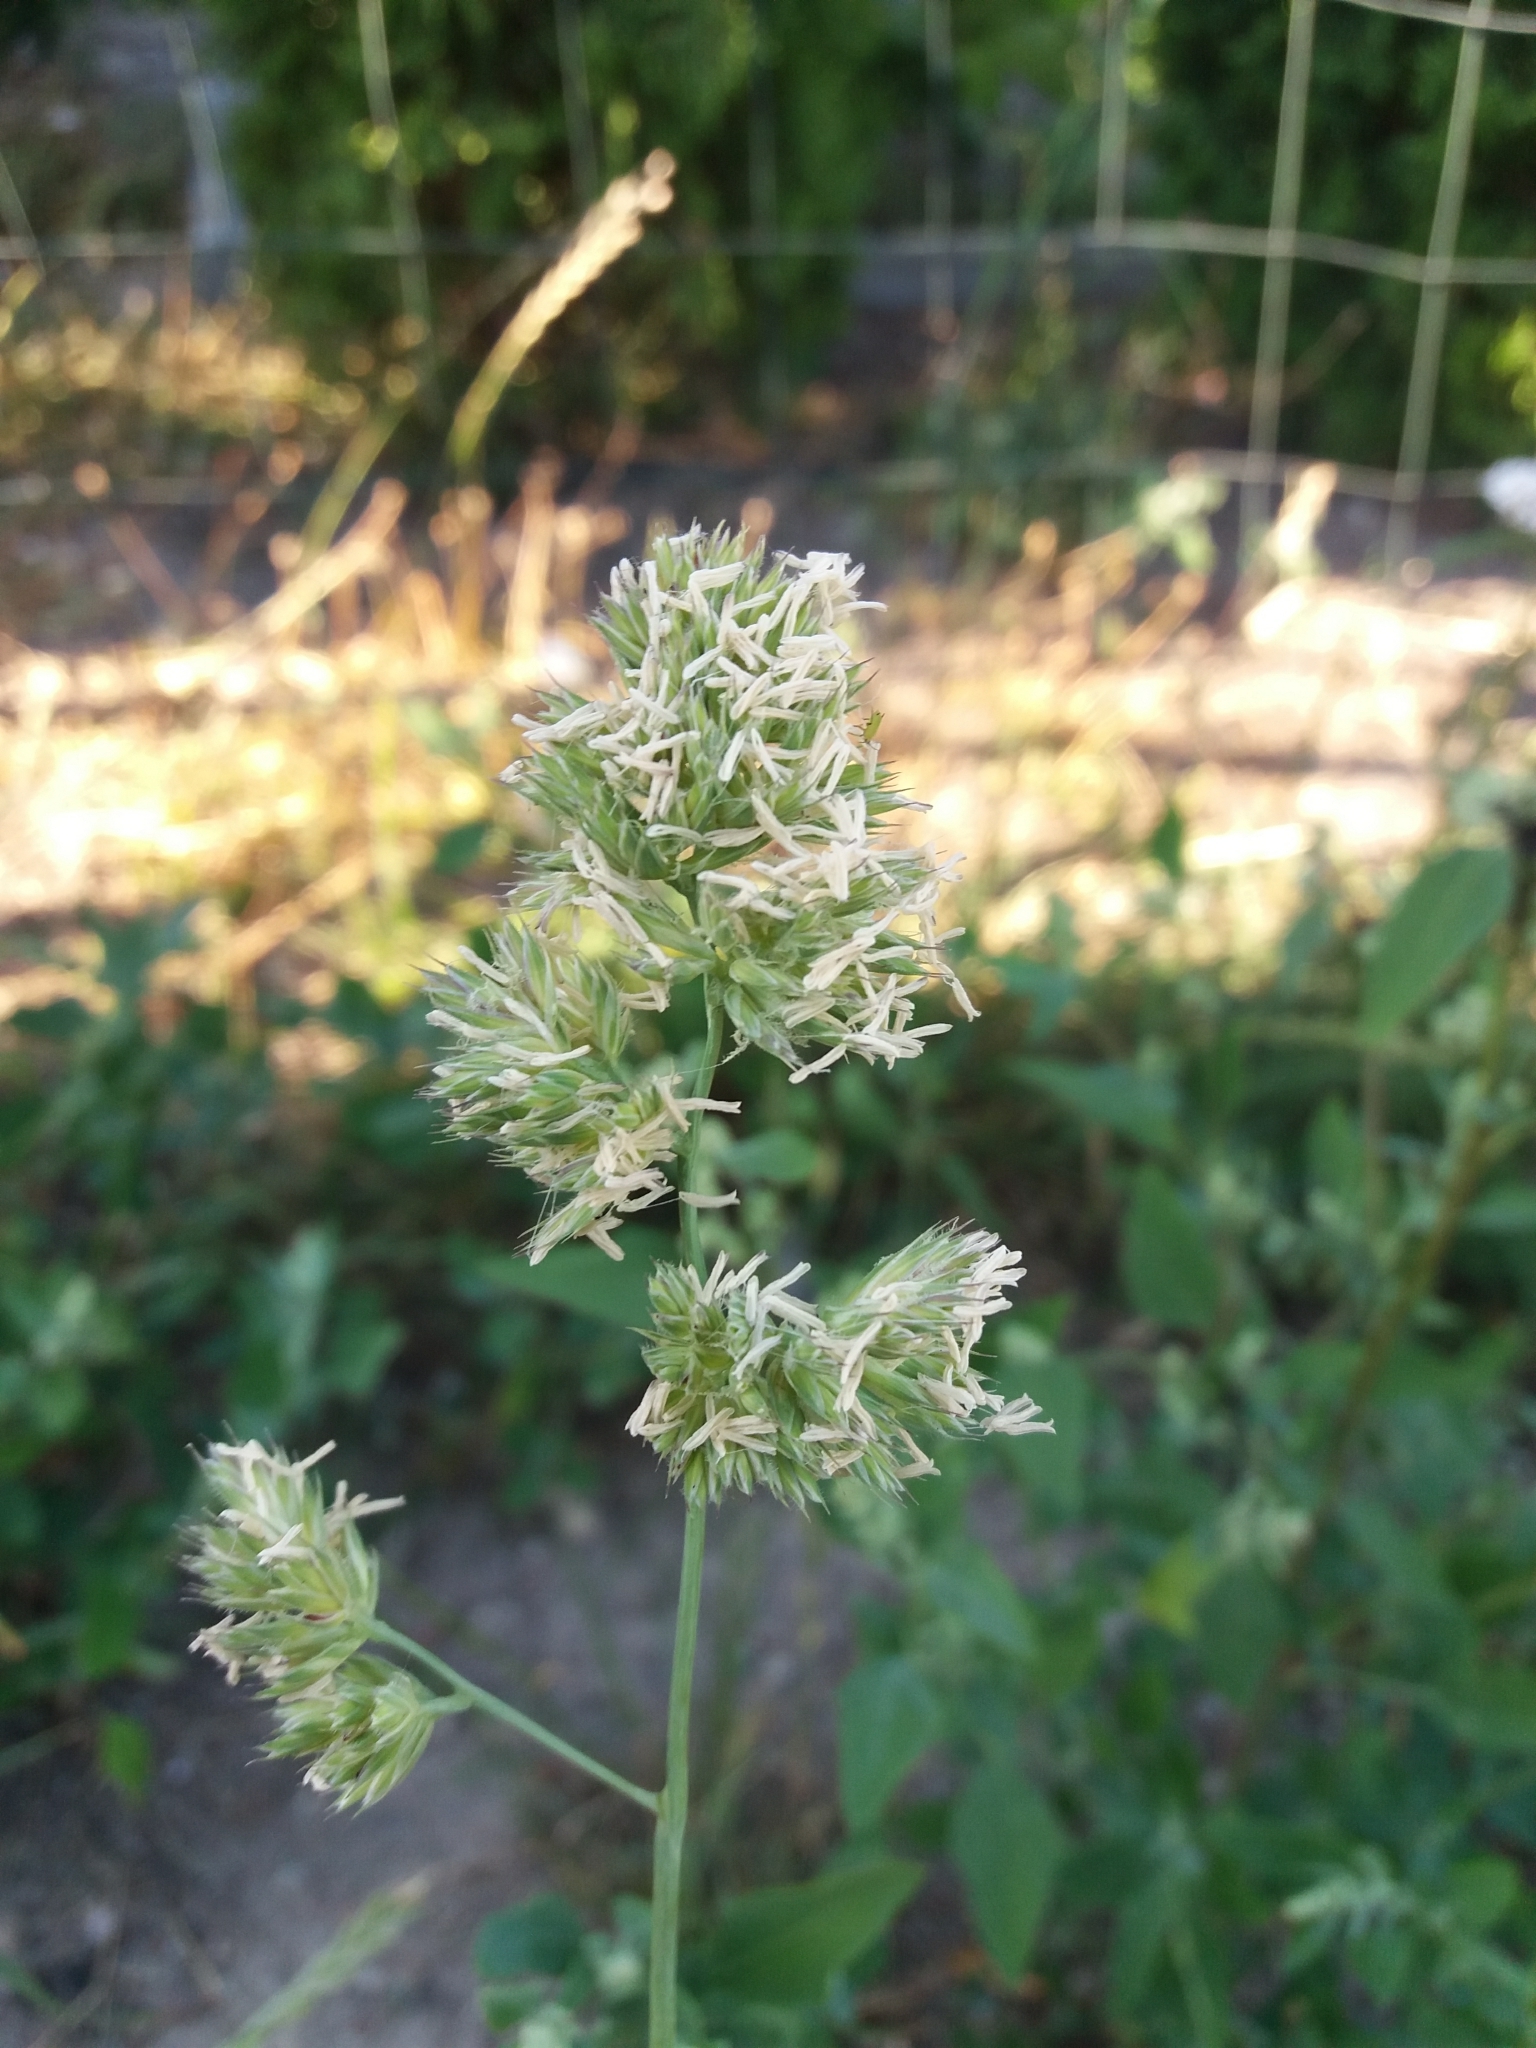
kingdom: Plantae
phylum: Tracheophyta
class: Liliopsida
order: Poales
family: Poaceae
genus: Dactylis
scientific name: Dactylis glomerata
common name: Orchardgrass
